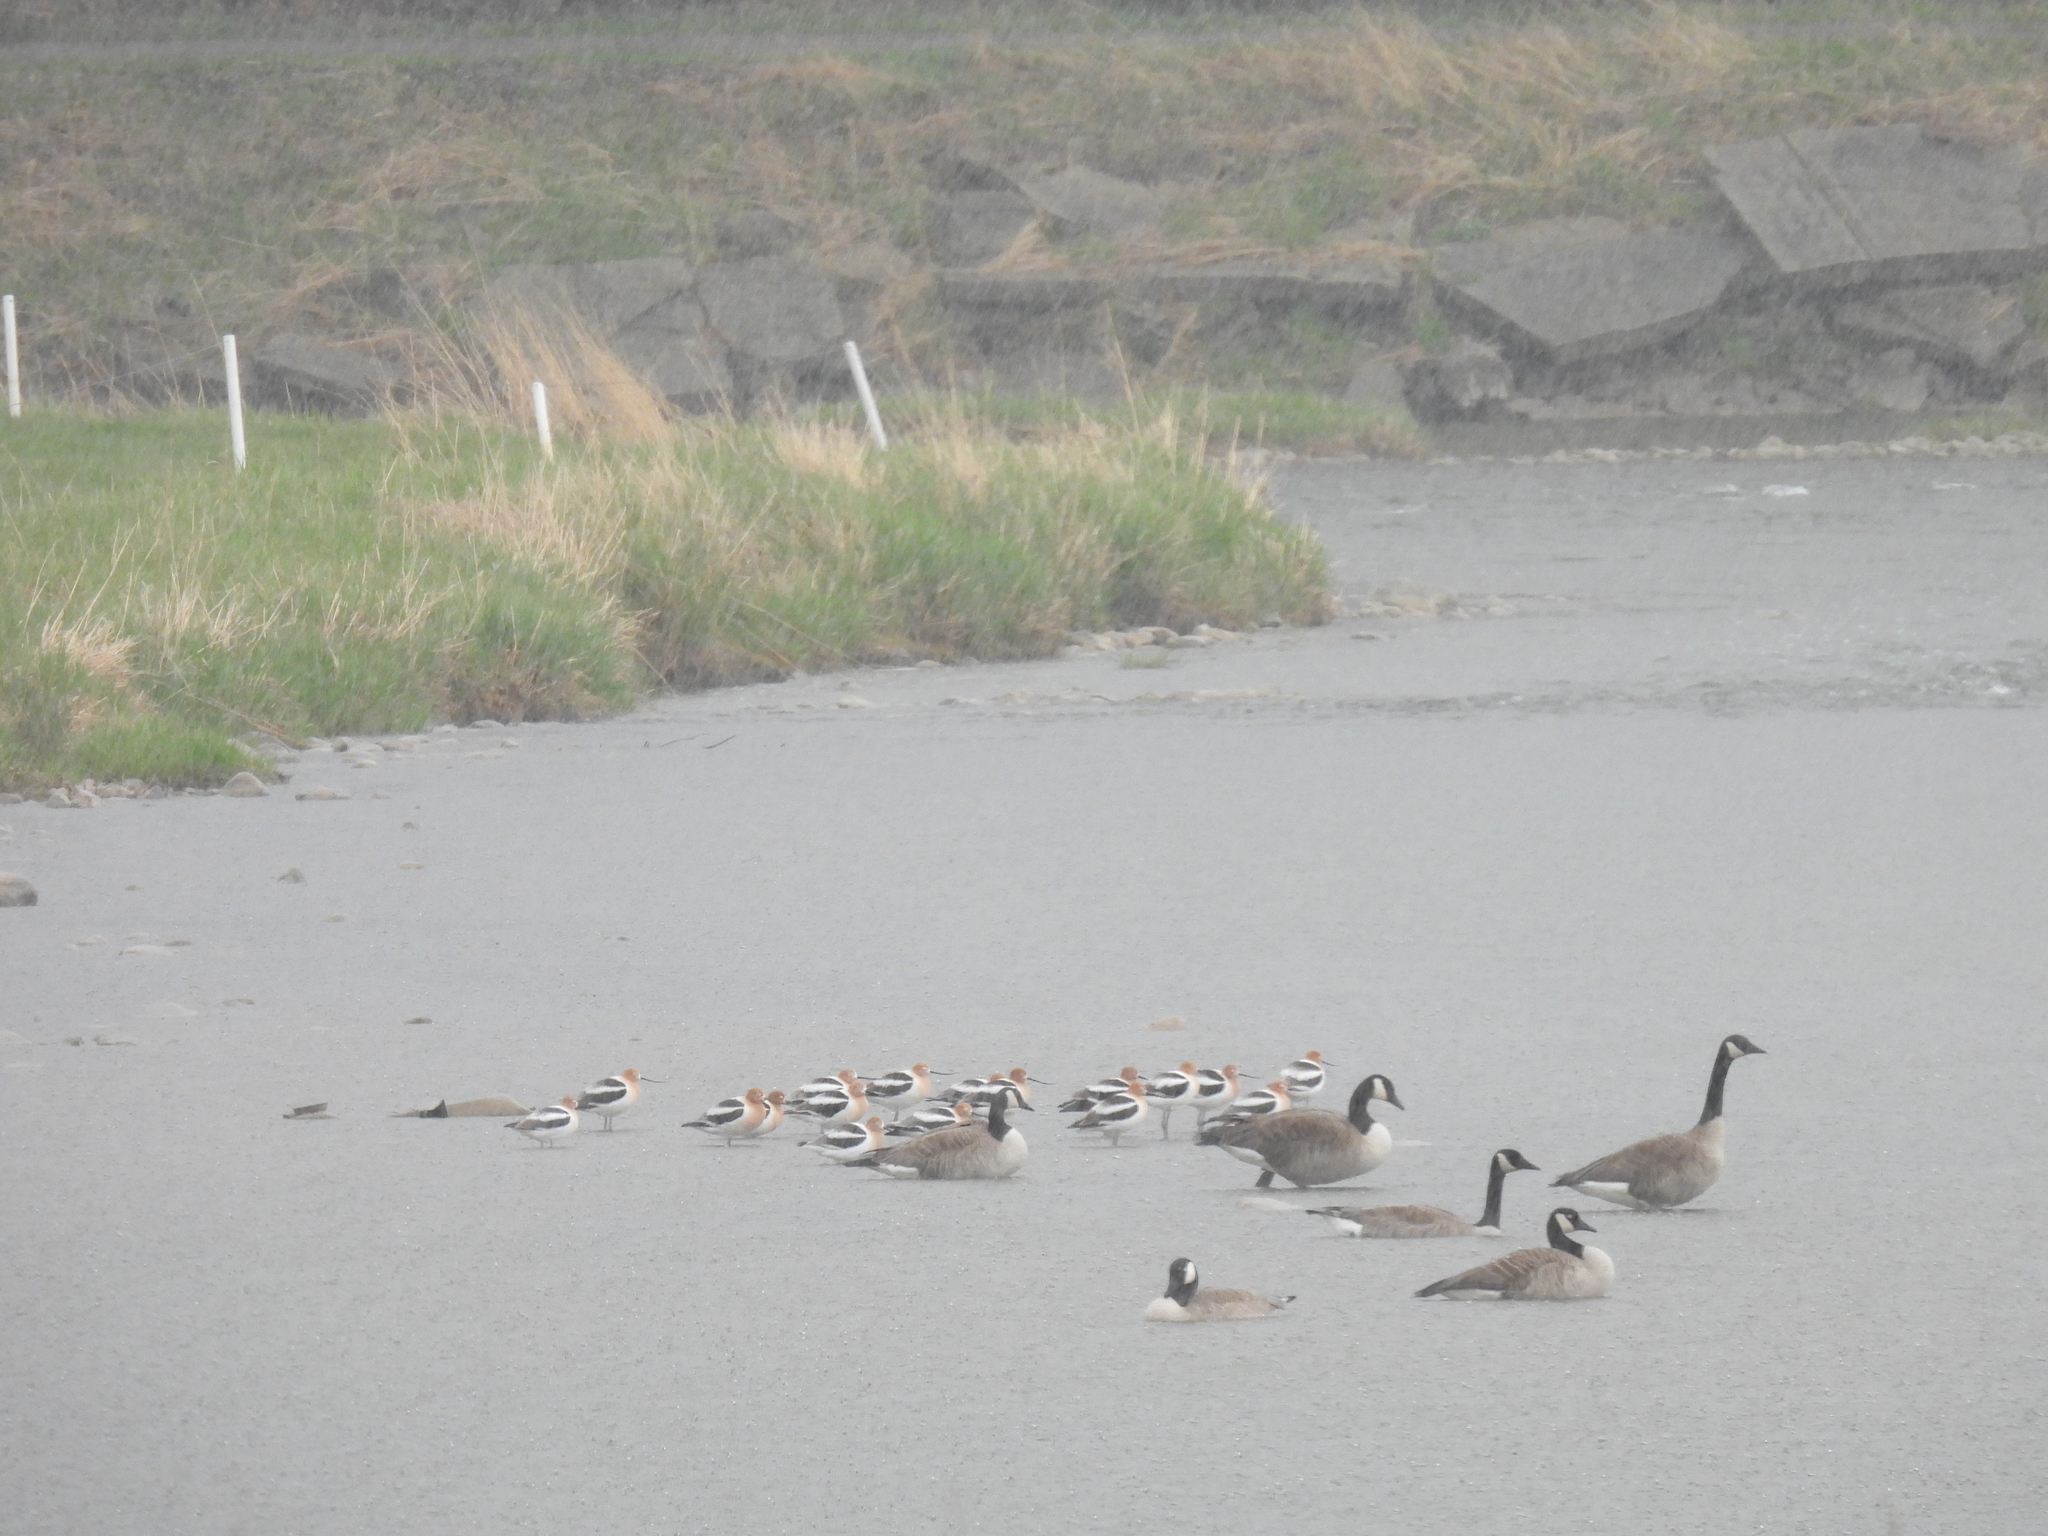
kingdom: Animalia
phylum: Chordata
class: Aves
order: Charadriiformes
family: Recurvirostridae
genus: Recurvirostra
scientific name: Recurvirostra americana
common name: American avocet
